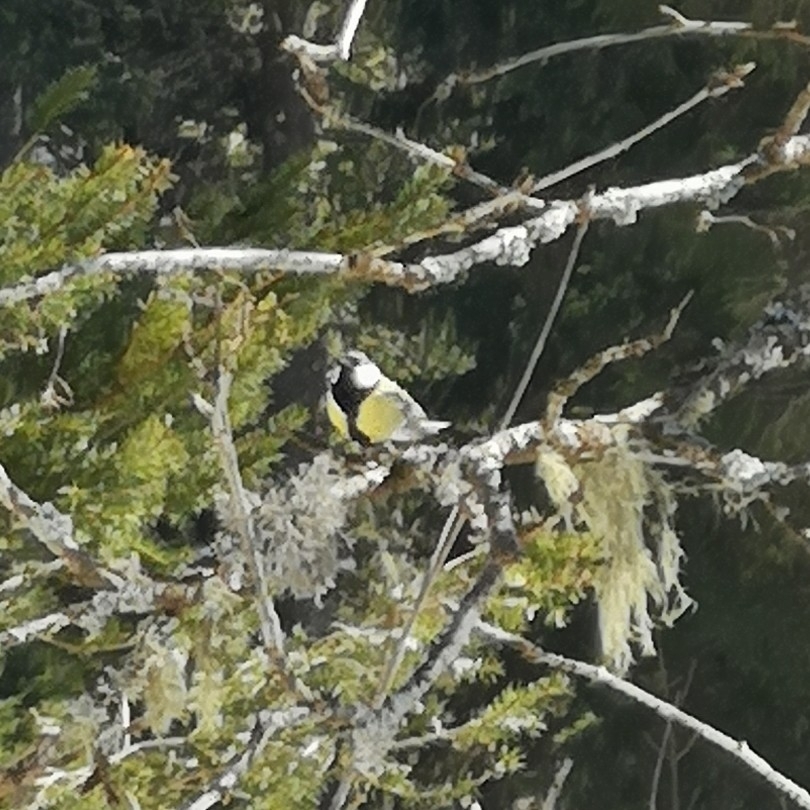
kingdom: Animalia
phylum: Chordata
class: Aves
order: Passeriformes
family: Paridae
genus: Parus
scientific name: Parus major
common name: Great tit
